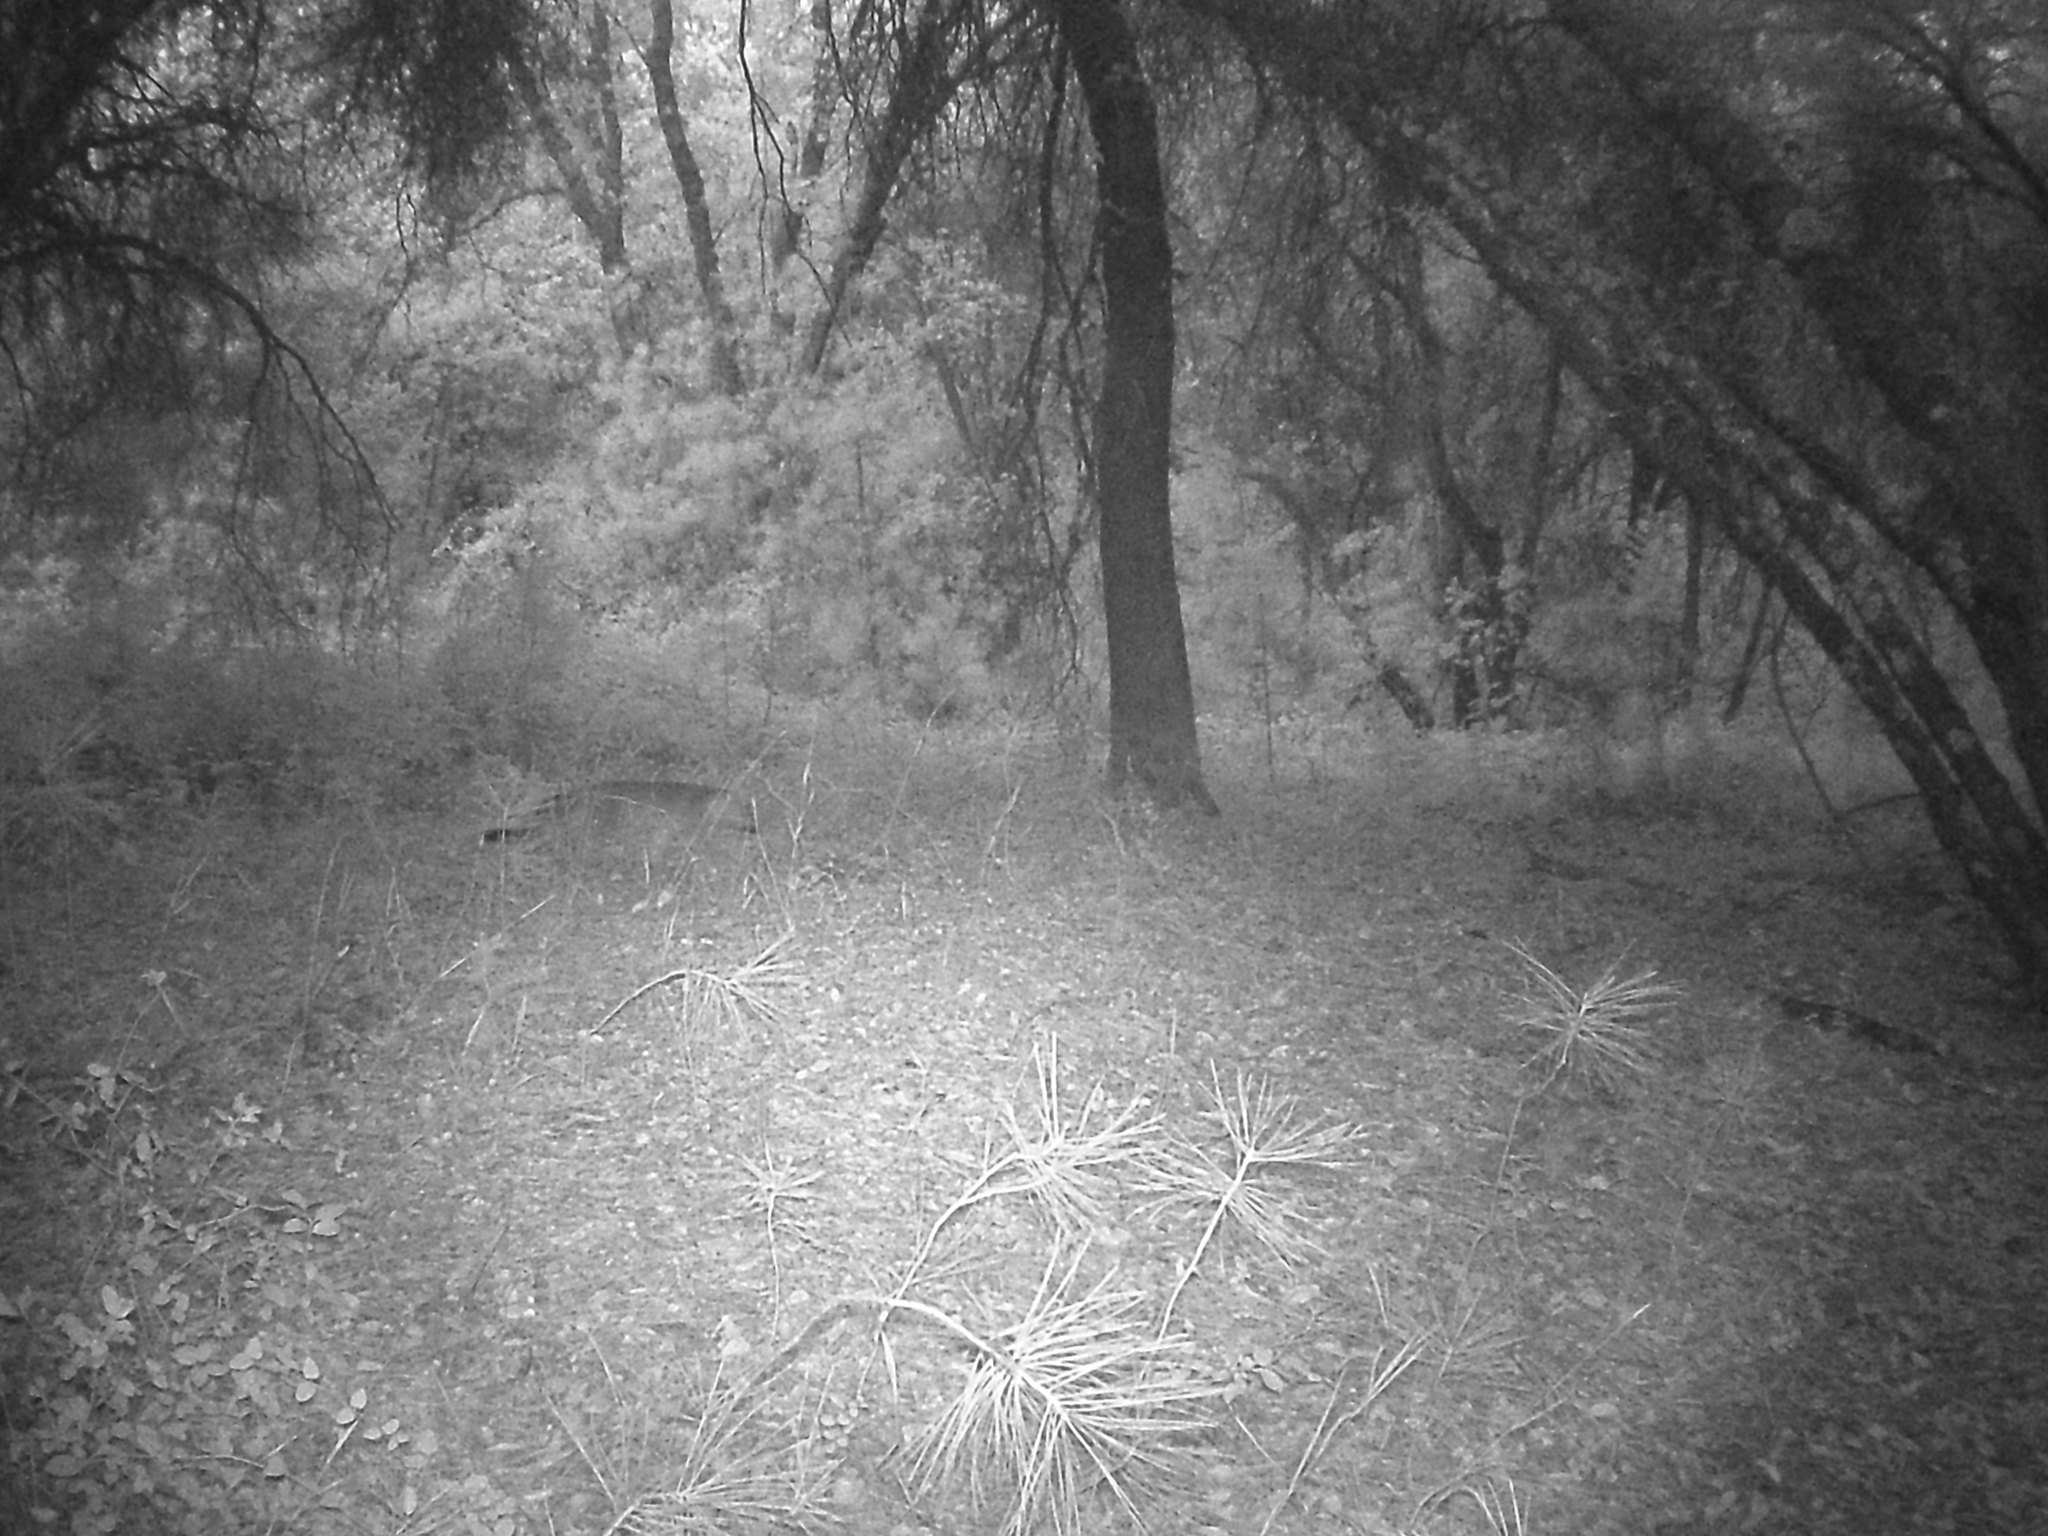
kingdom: Animalia
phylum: Chordata
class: Mammalia
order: Carnivora
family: Canidae
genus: Urocyon
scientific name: Urocyon cinereoargenteus
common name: Gray fox
